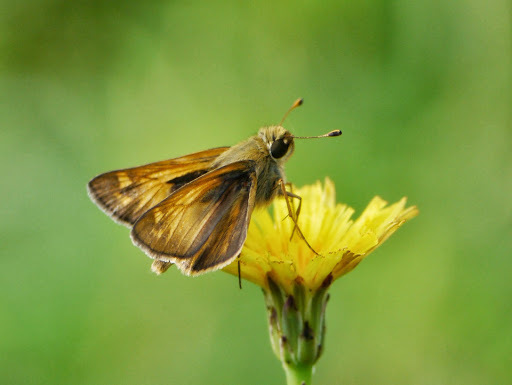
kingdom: Animalia
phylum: Arthropoda
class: Insecta
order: Lepidoptera
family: Hesperiidae
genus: Atalopedes
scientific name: Atalopedes
